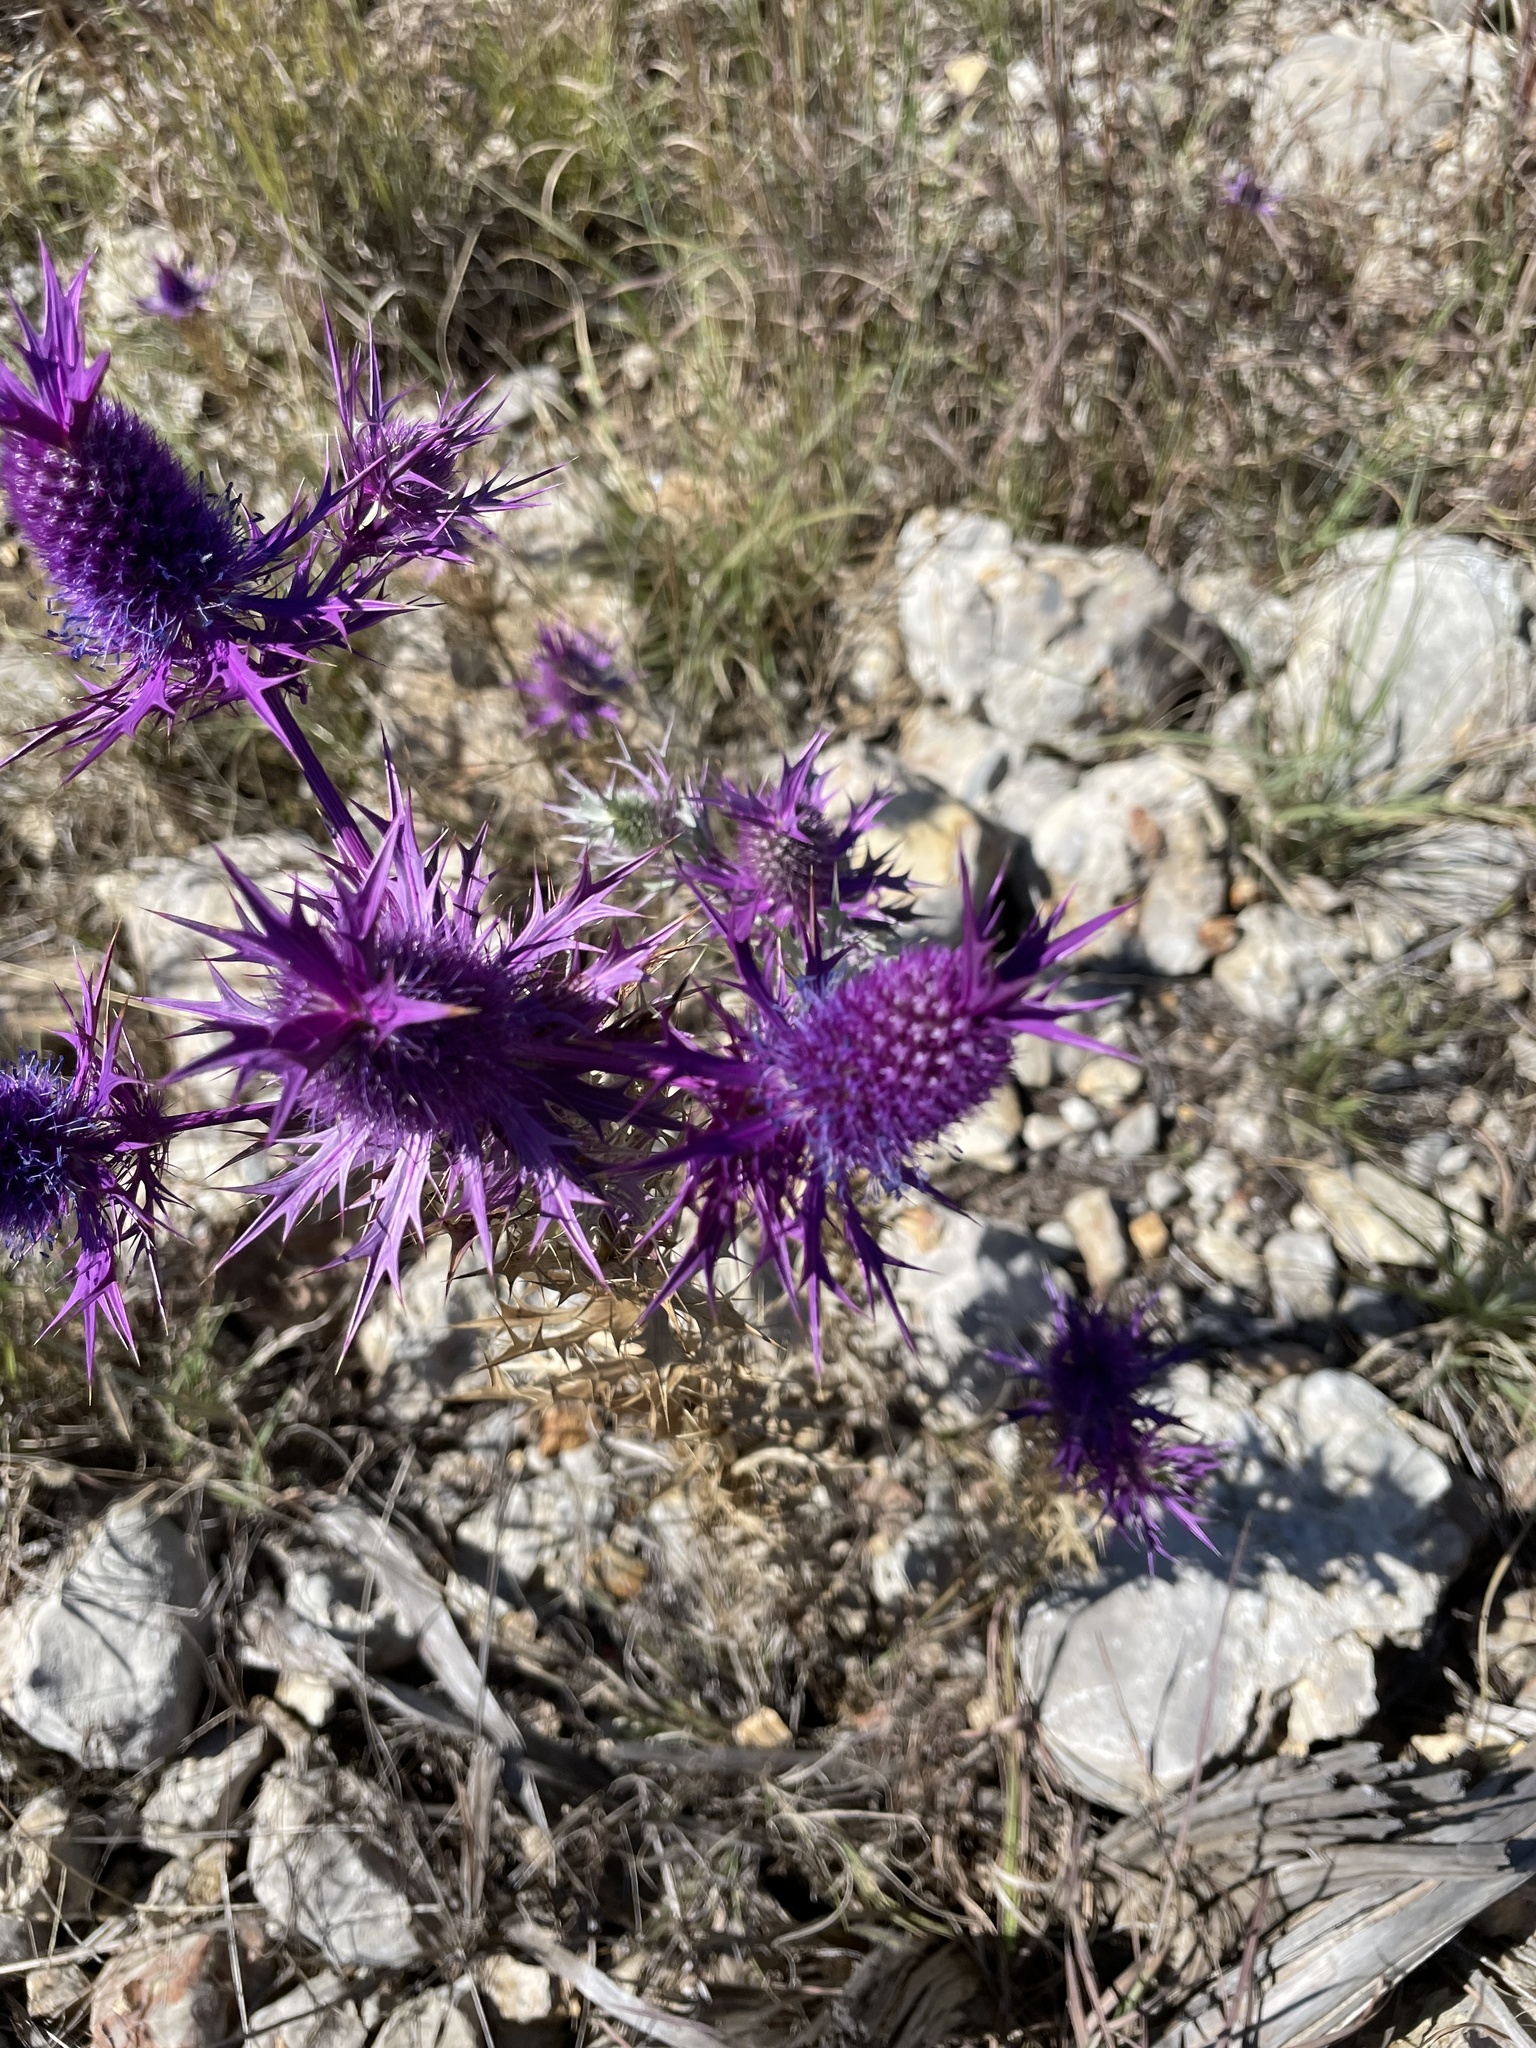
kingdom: Plantae
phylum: Tracheophyta
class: Magnoliopsida
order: Apiales
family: Apiaceae
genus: Eryngium
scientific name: Eryngium leavenworthii
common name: Leavenworth's eryngo
